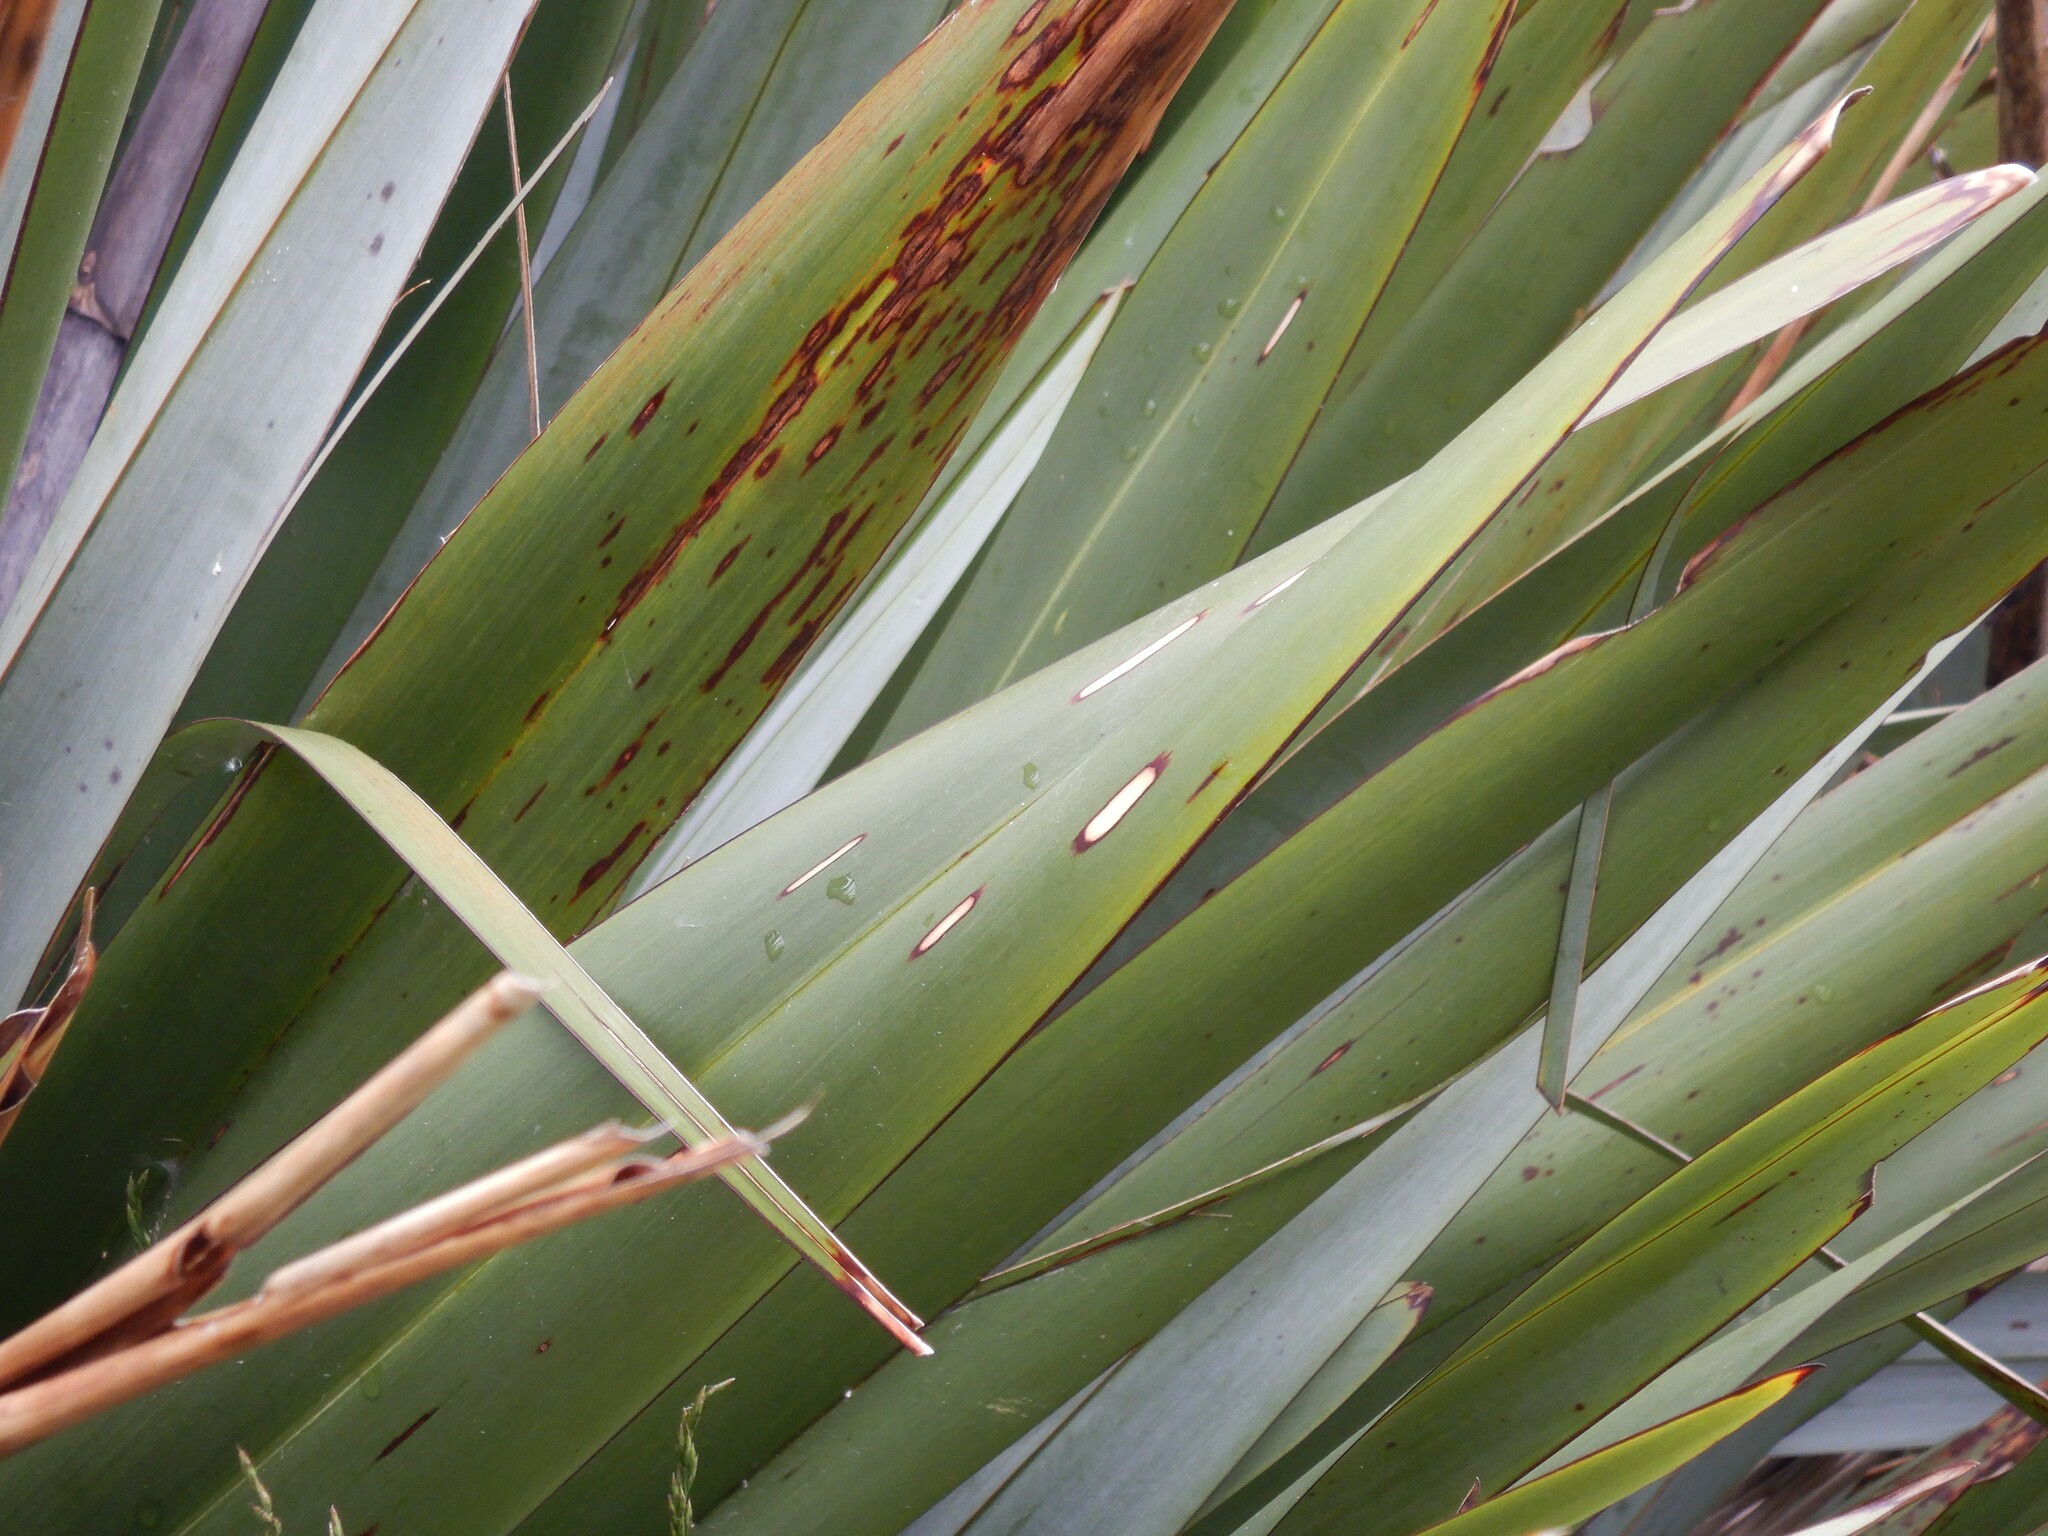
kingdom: Animalia
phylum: Arthropoda
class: Insecta
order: Lepidoptera
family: Geometridae
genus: Orthoclydon
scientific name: Orthoclydon praefectata
